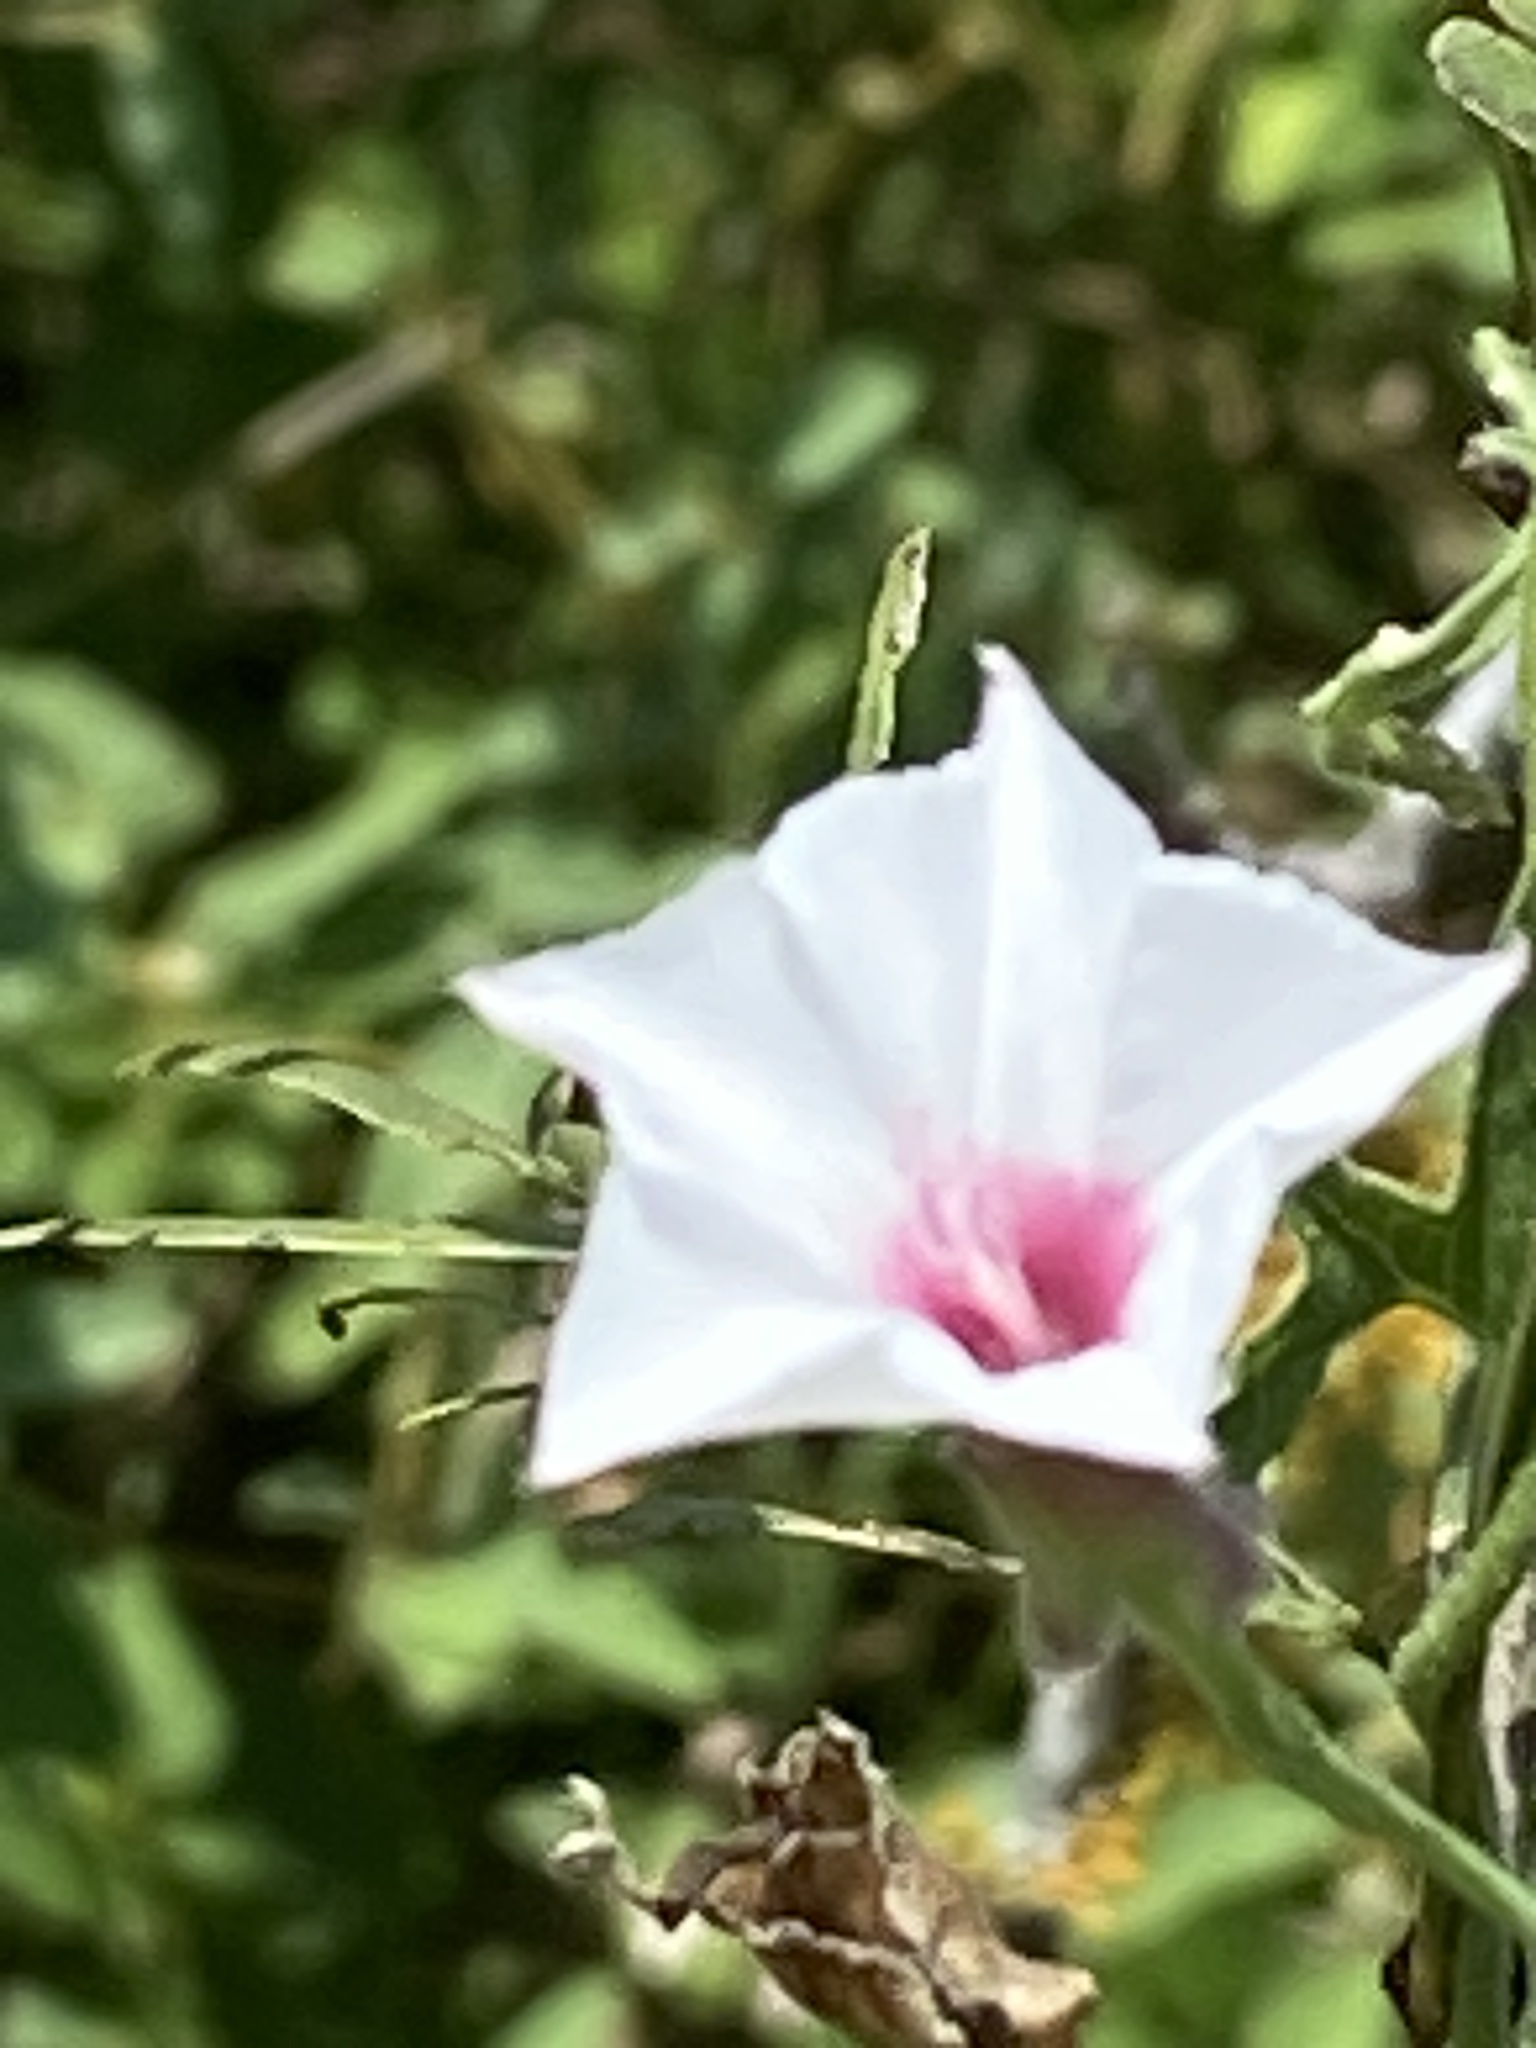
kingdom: Plantae
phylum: Tracheophyta
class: Magnoliopsida
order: Solanales
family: Convolvulaceae
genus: Convolvulus
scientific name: Convolvulus equitans
